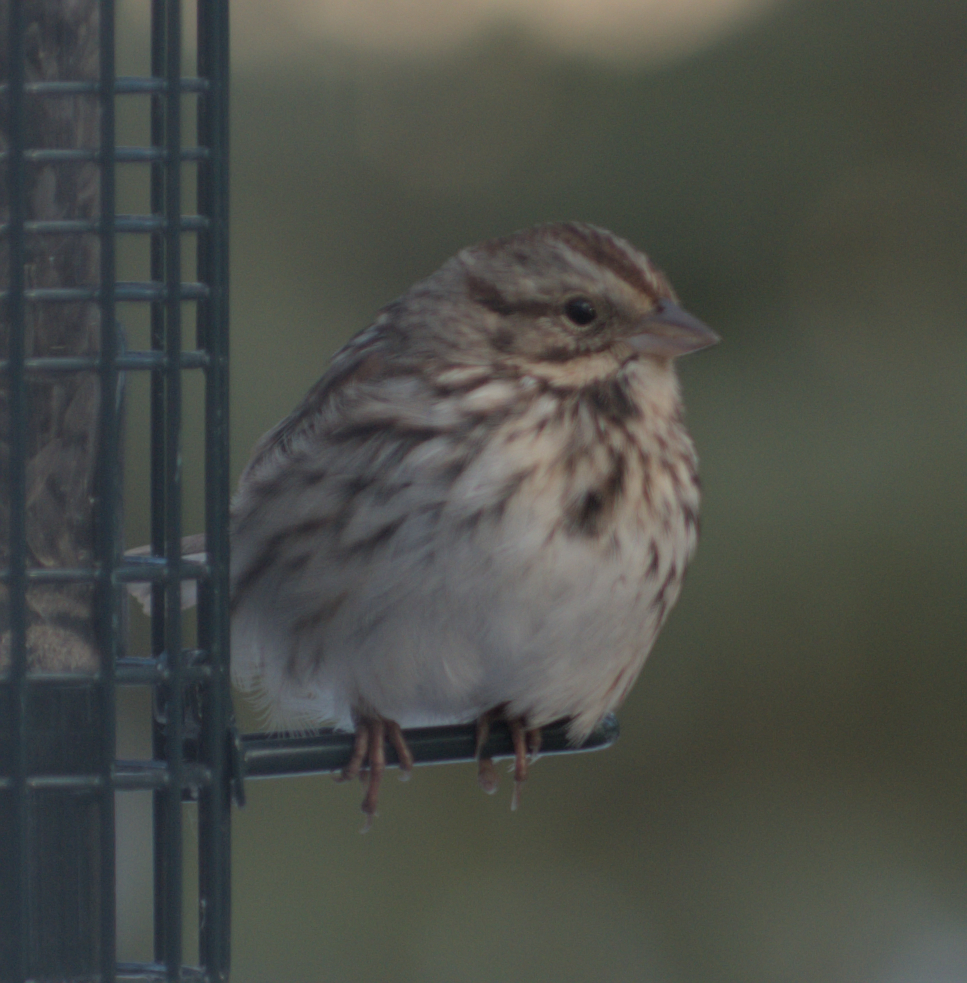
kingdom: Animalia
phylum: Chordata
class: Aves
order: Passeriformes
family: Passerellidae
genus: Melospiza
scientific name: Melospiza melodia
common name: Song sparrow
